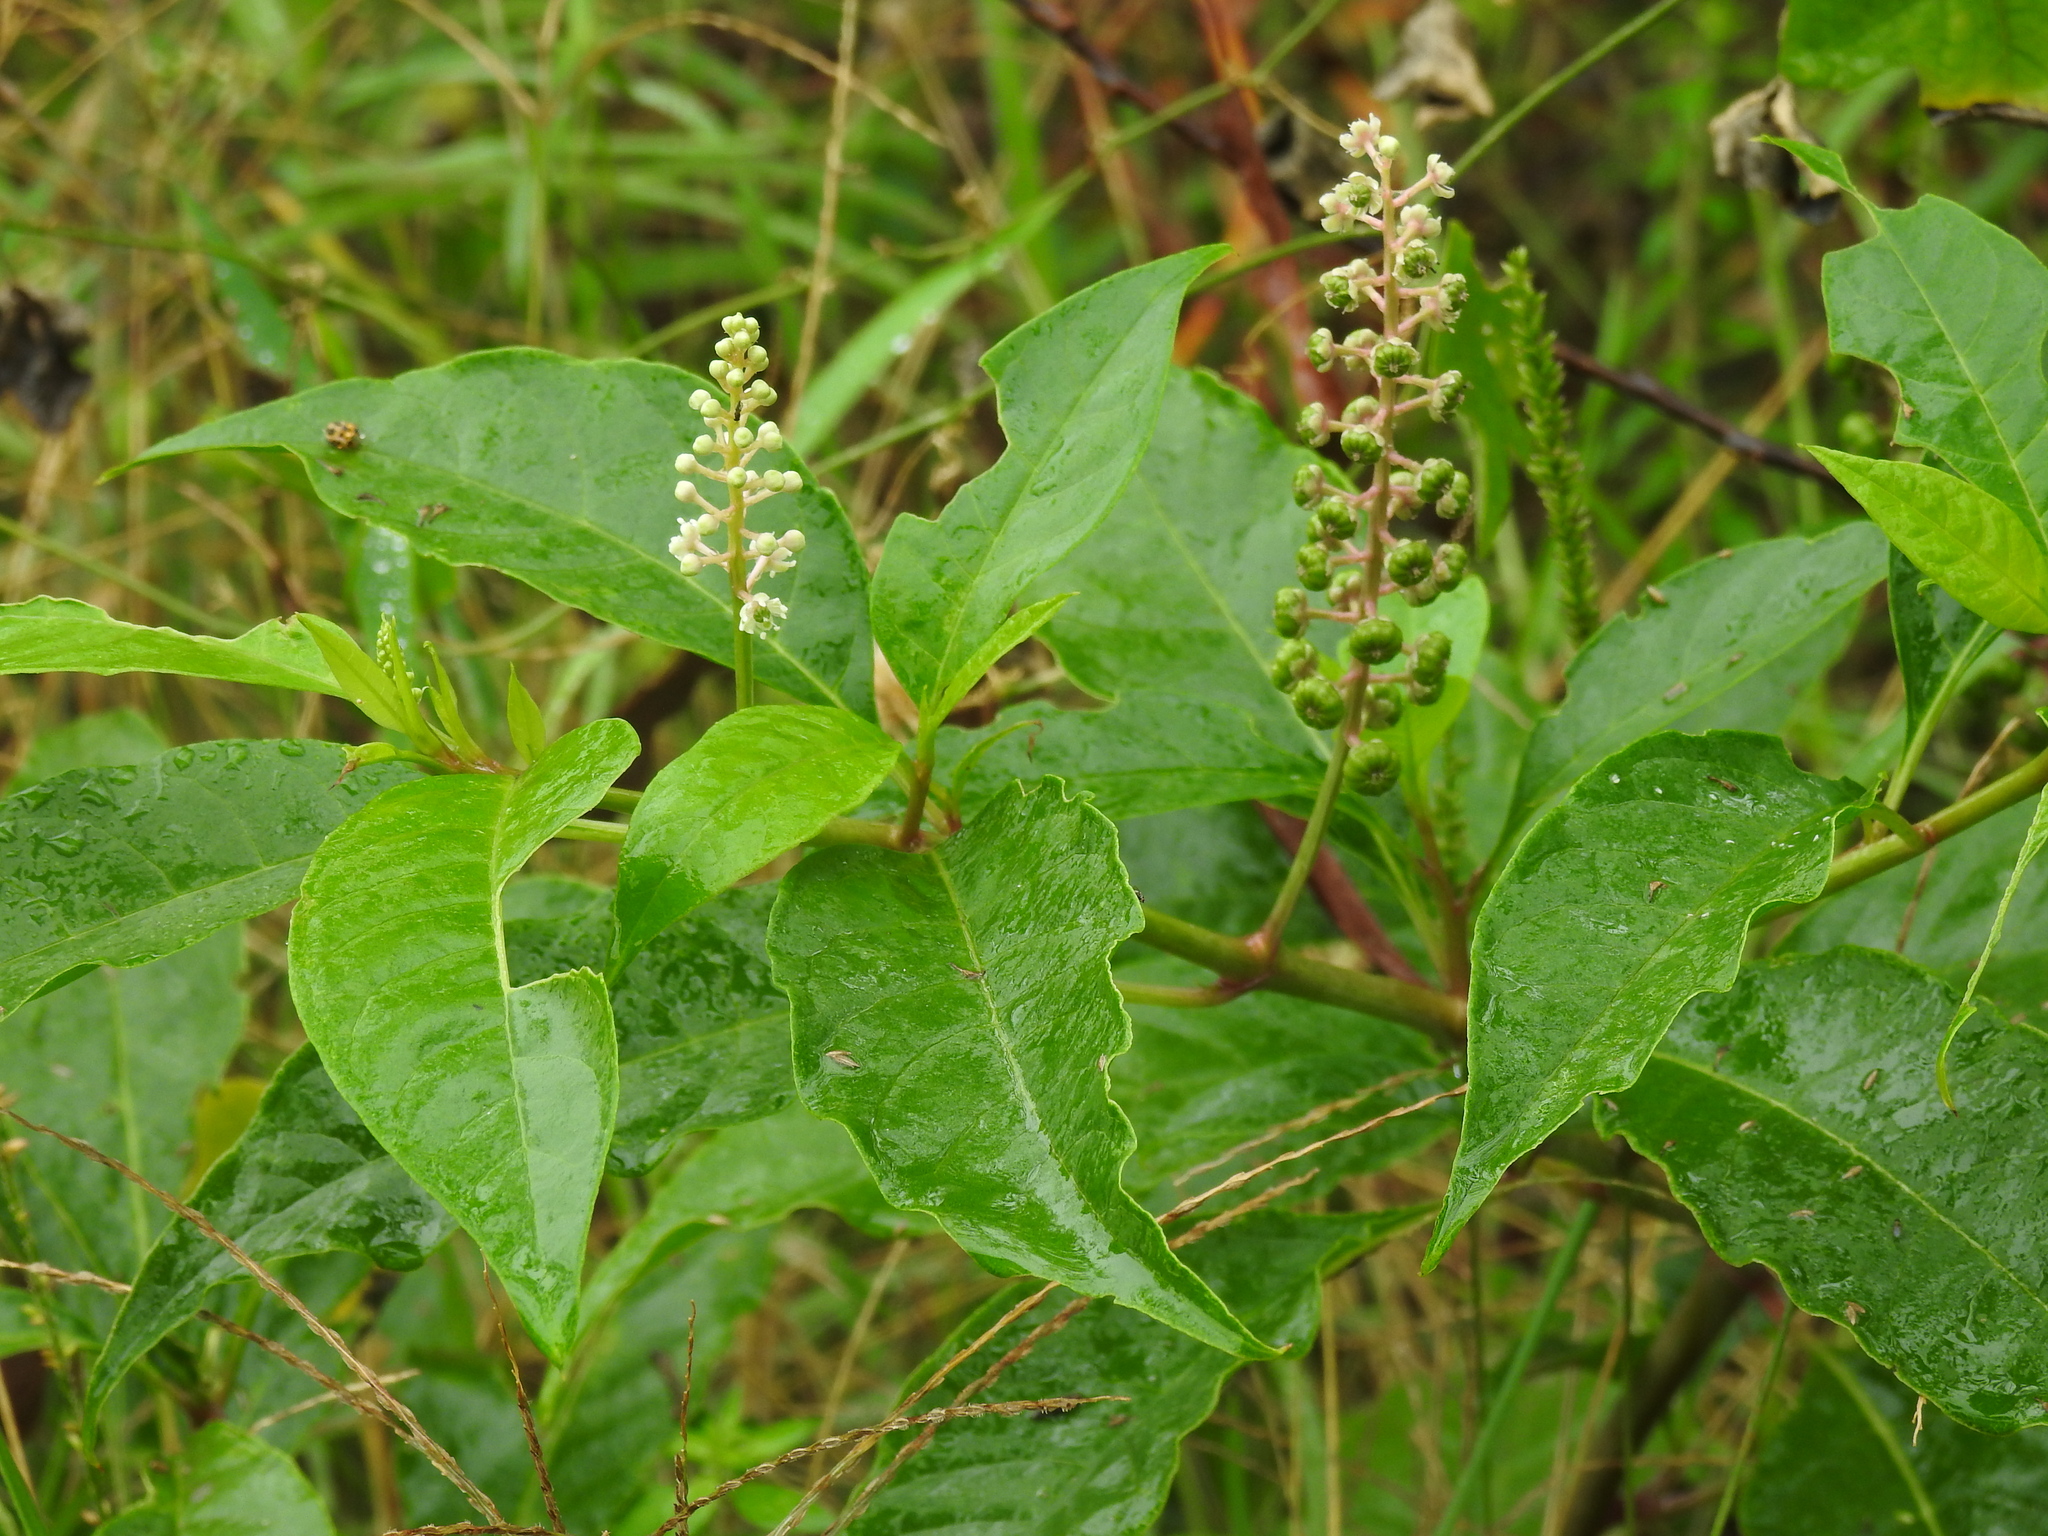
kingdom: Plantae
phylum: Tracheophyta
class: Magnoliopsida
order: Caryophyllales
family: Phytolaccaceae
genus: Phytolacca
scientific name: Phytolacca americana
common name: American pokeweed
